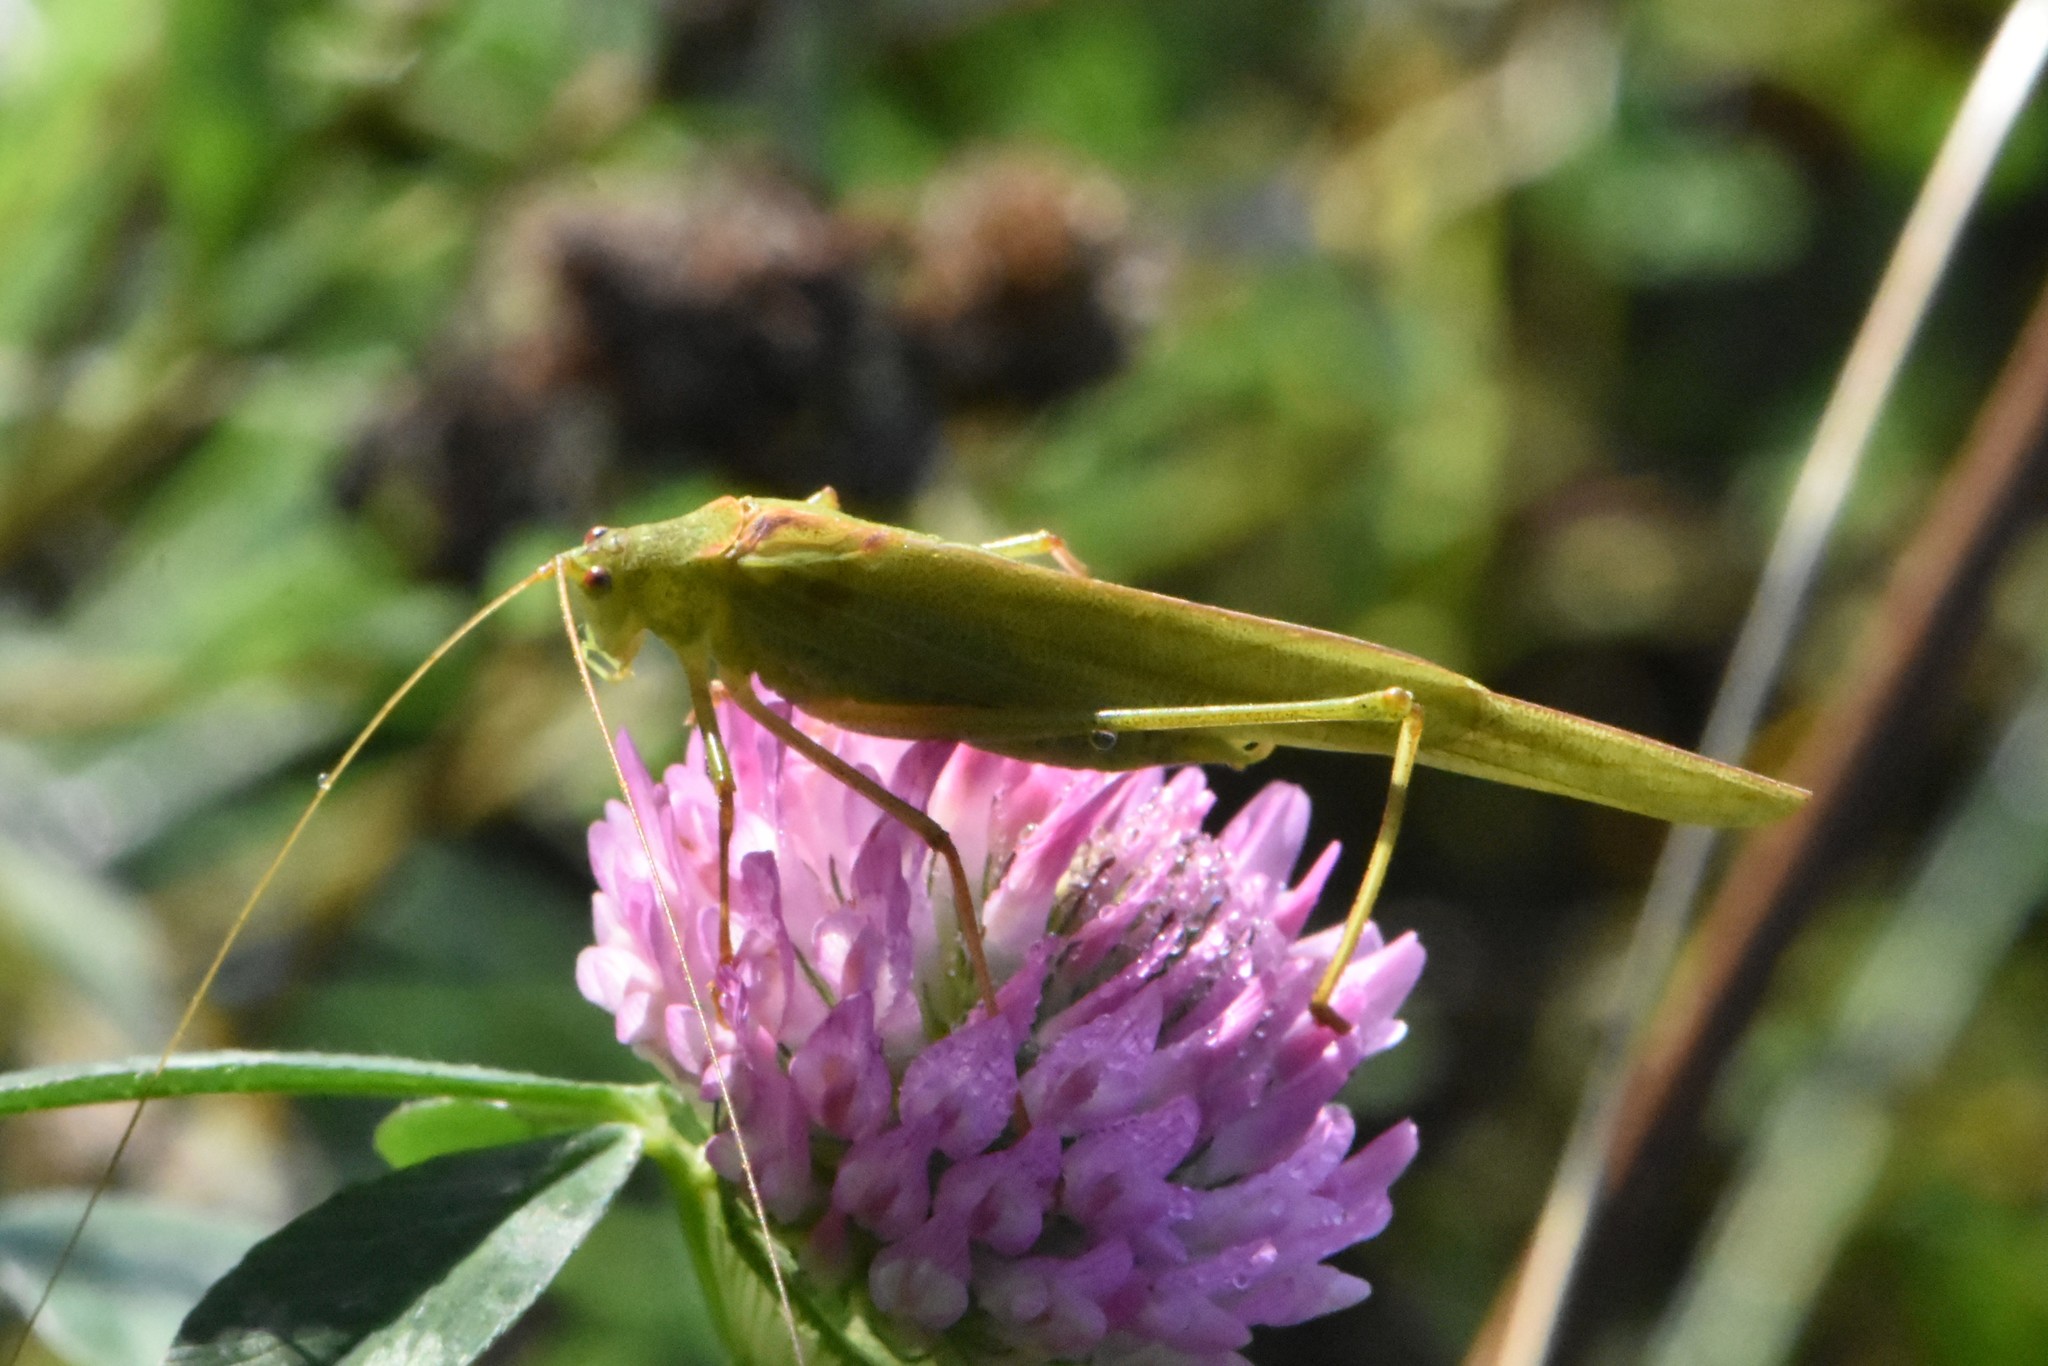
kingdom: Animalia
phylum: Arthropoda
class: Insecta
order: Orthoptera
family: Tettigoniidae
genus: Phaneroptera
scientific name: Phaneroptera falcata
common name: Sickle-bearing bush-cricket
